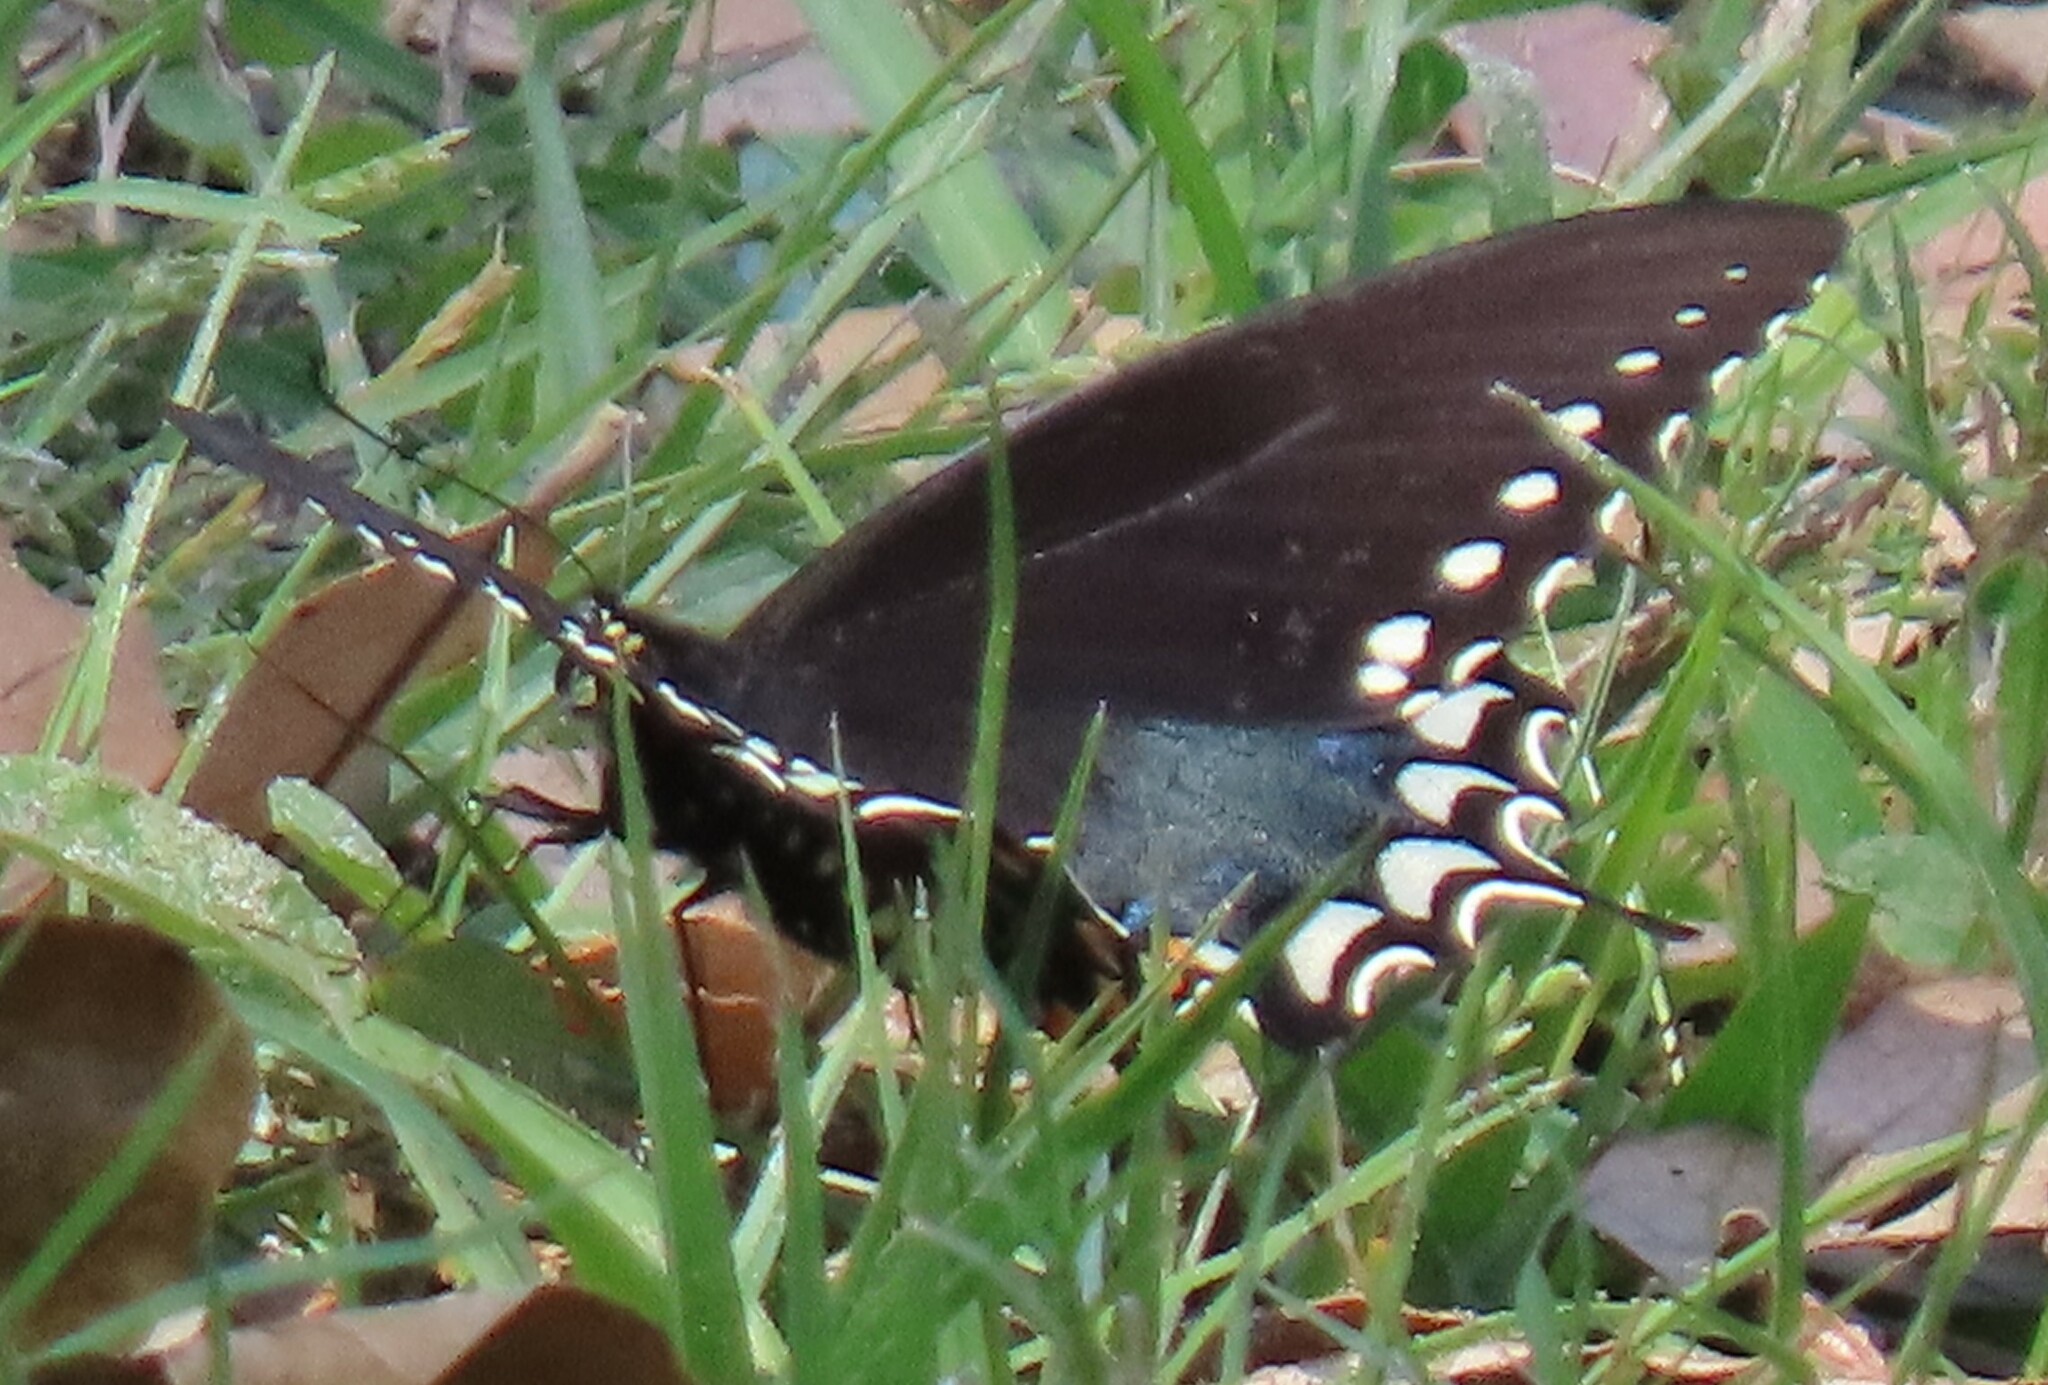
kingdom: Animalia
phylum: Arthropoda
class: Insecta
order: Lepidoptera
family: Papilionidae
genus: Papilio
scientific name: Papilio troilus
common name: Spicebush swallowtail
